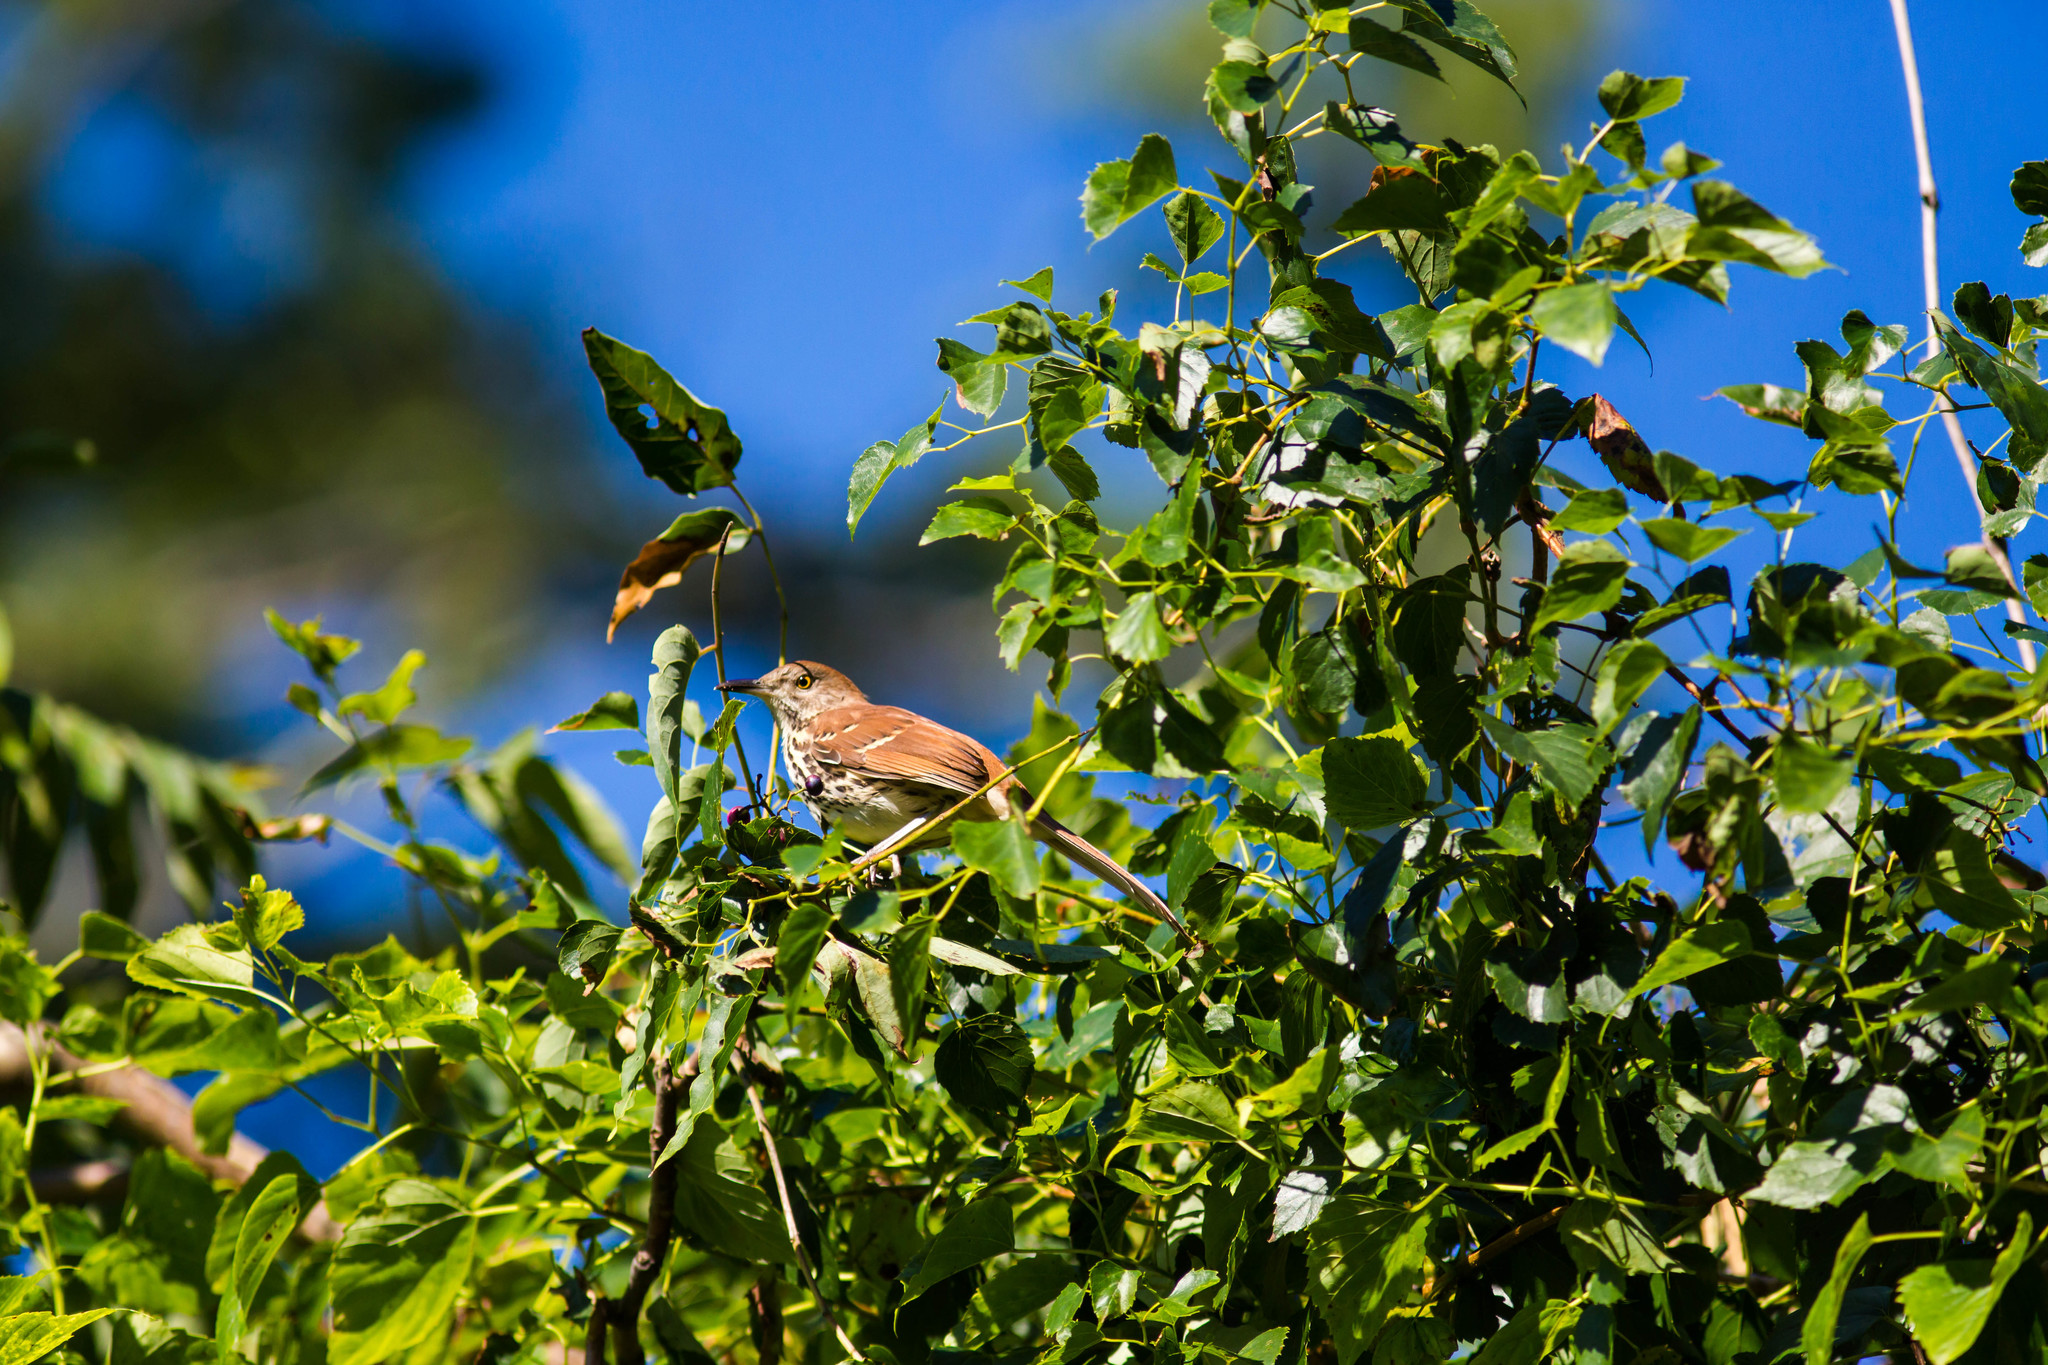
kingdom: Animalia
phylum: Chordata
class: Aves
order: Passeriformes
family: Mimidae
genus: Toxostoma
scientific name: Toxostoma rufum
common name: Brown thrasher
